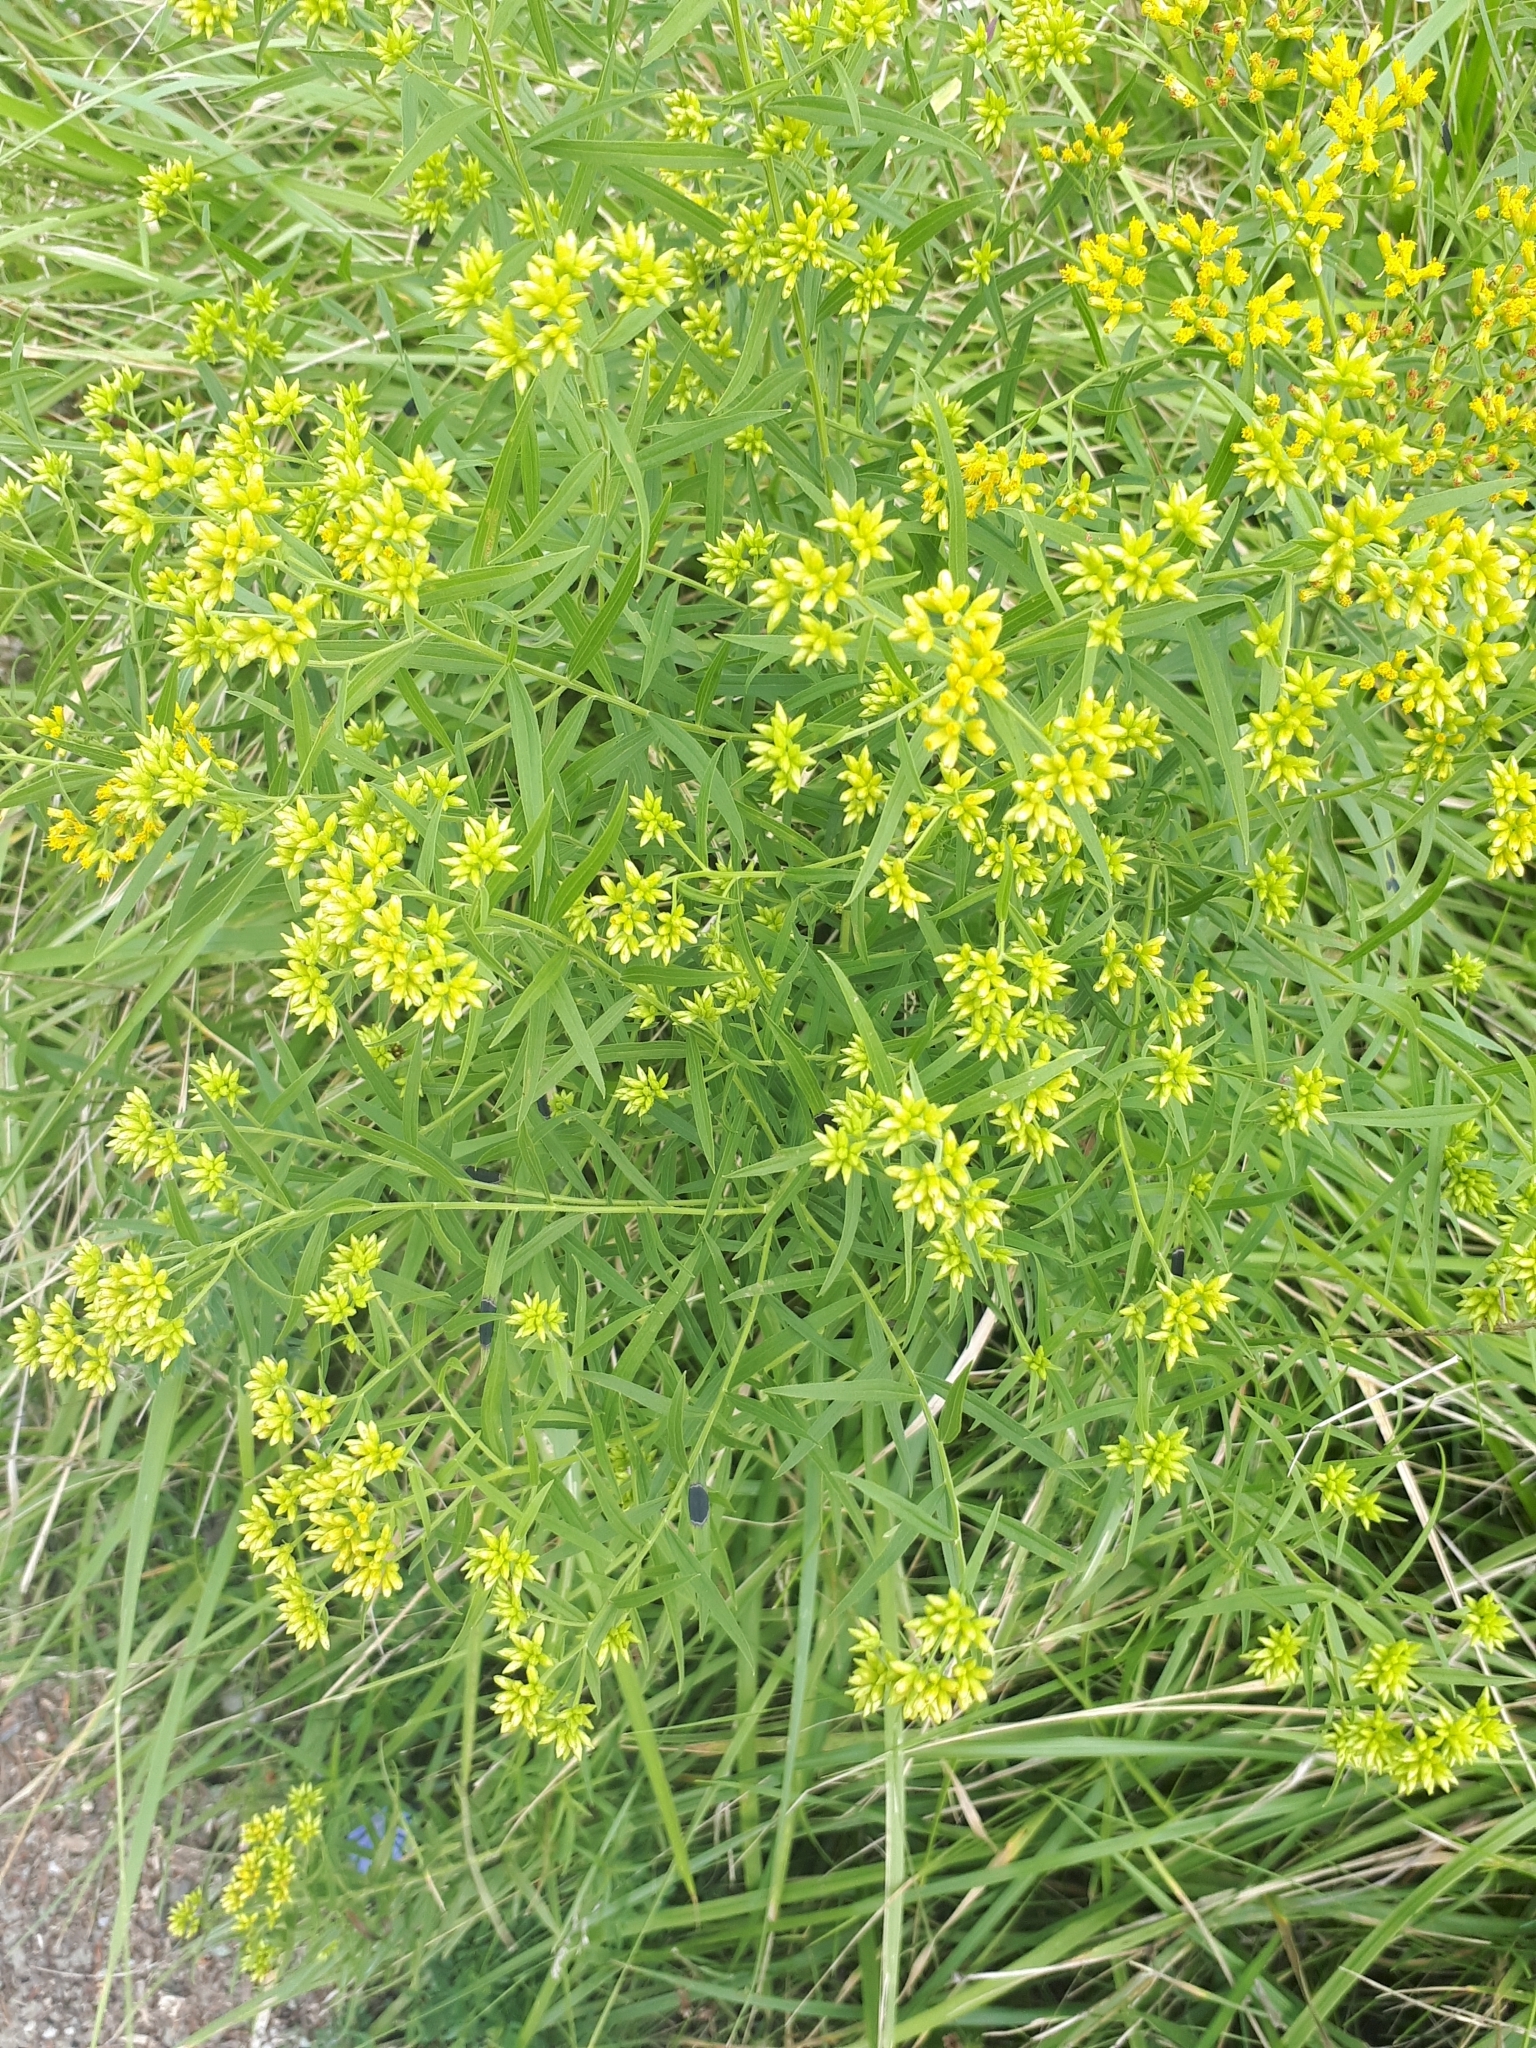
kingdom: Plantae
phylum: Tracheophyta
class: Magnoliopsida
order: Asterales
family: Asteraceae
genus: Euthamia
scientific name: Euthamia graminifolia
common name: Common goldentop
